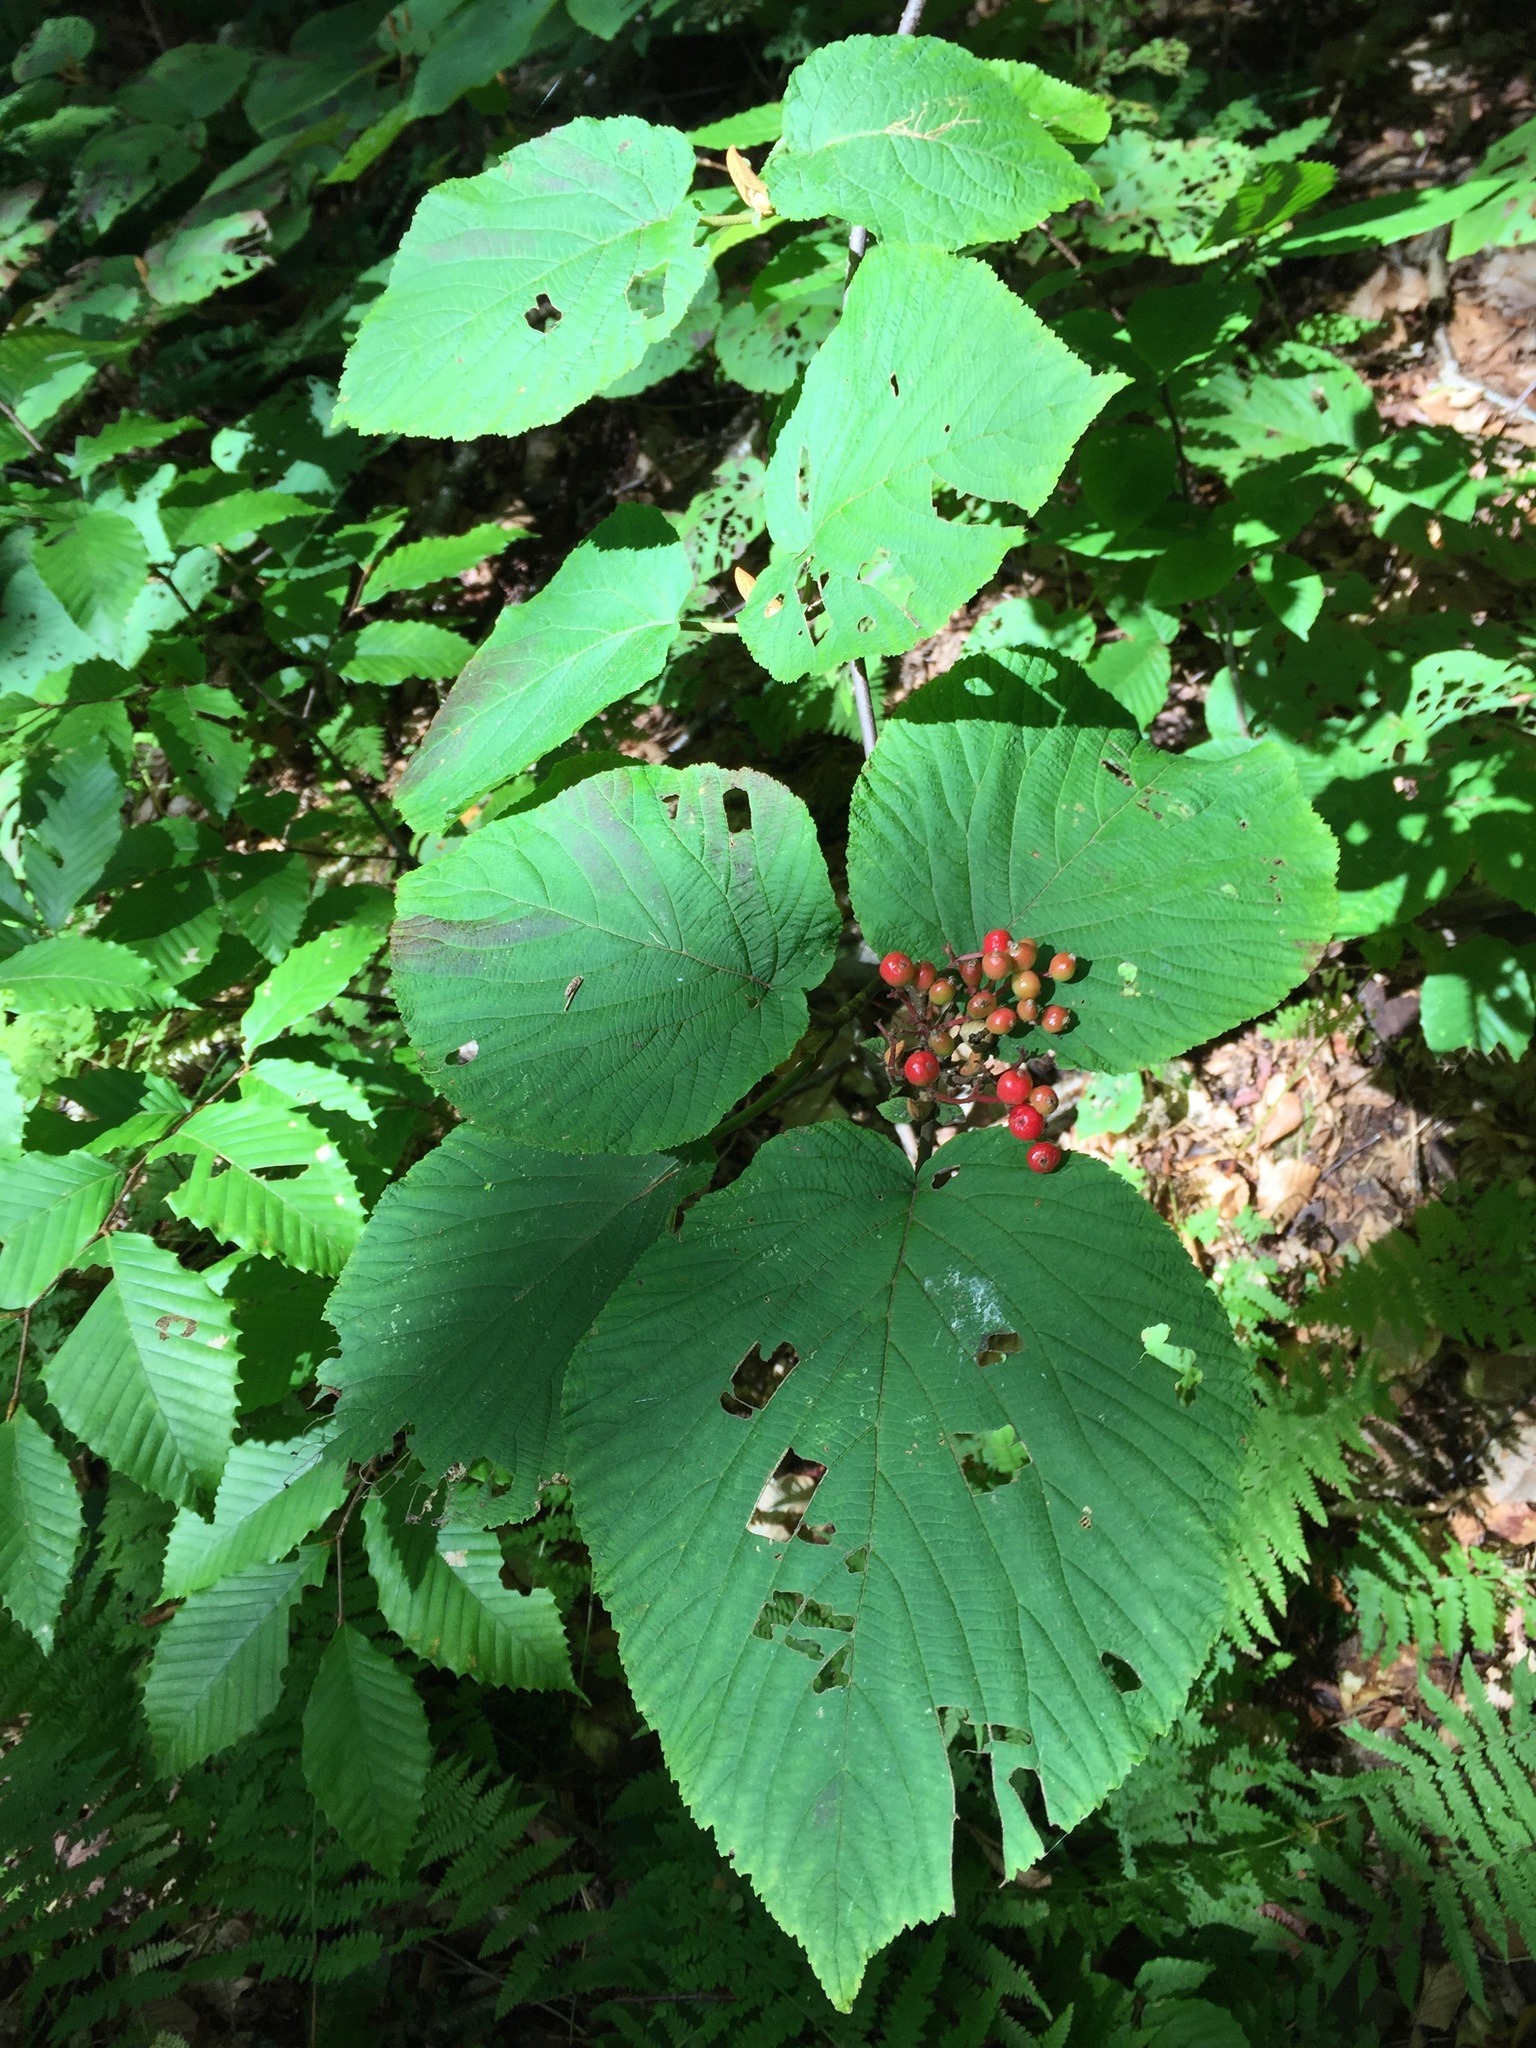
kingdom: Plantae
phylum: Tracheophyta
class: Magnoliopsida
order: Dipsacales
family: Viburnaceae
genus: Viburnum
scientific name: Viburnum lantanoides
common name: Hobblebush
